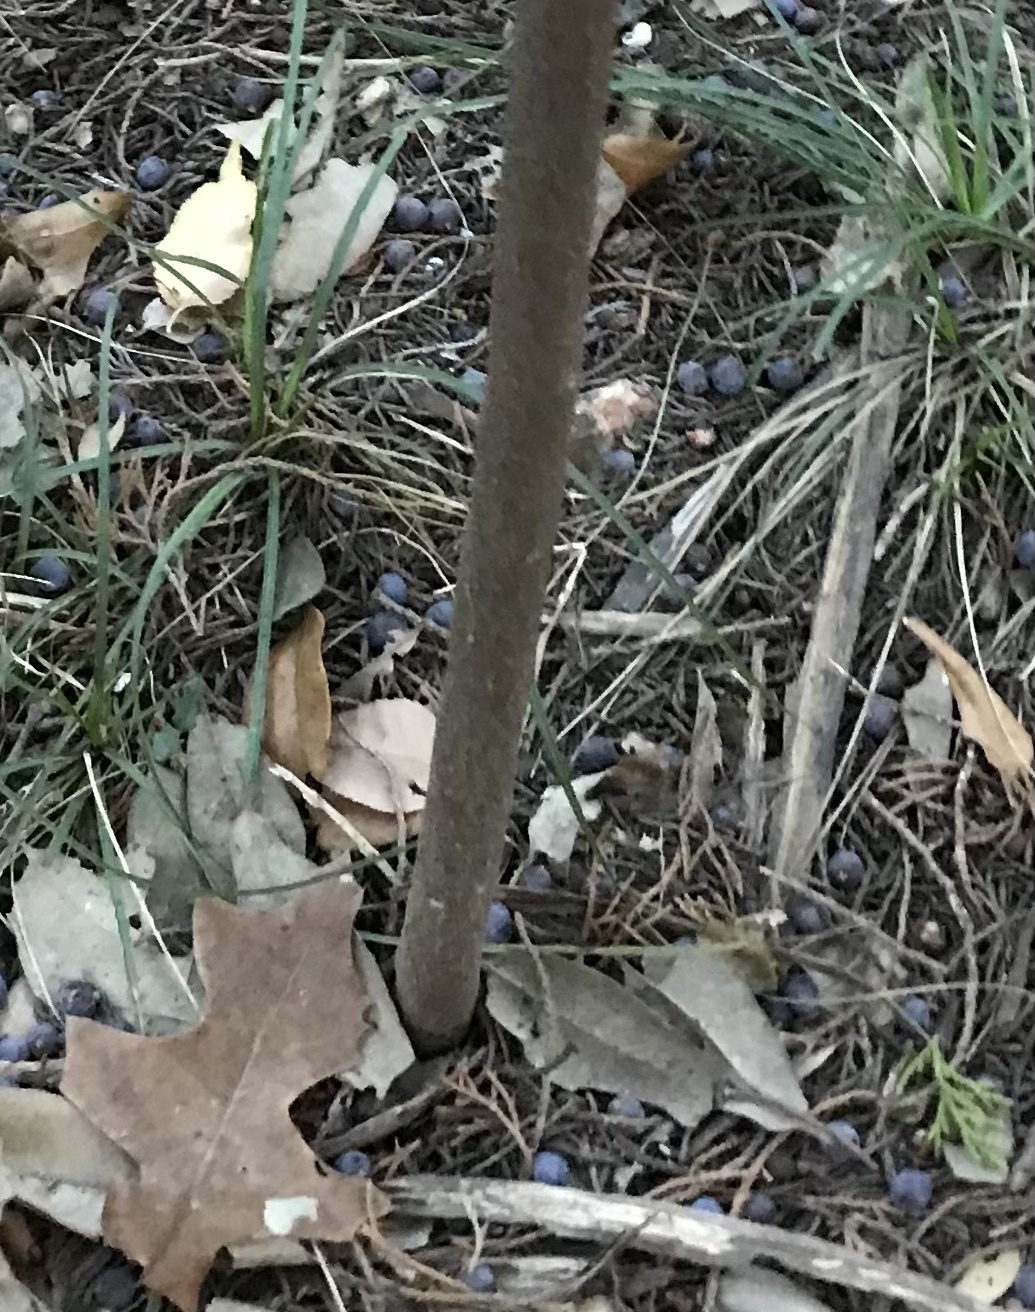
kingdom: Plantae
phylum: Tracheophyta
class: Magnoliopsida
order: Ericales
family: Ebenaceae
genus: Diospyros
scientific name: Diospyros texana
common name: Texas persimmon
